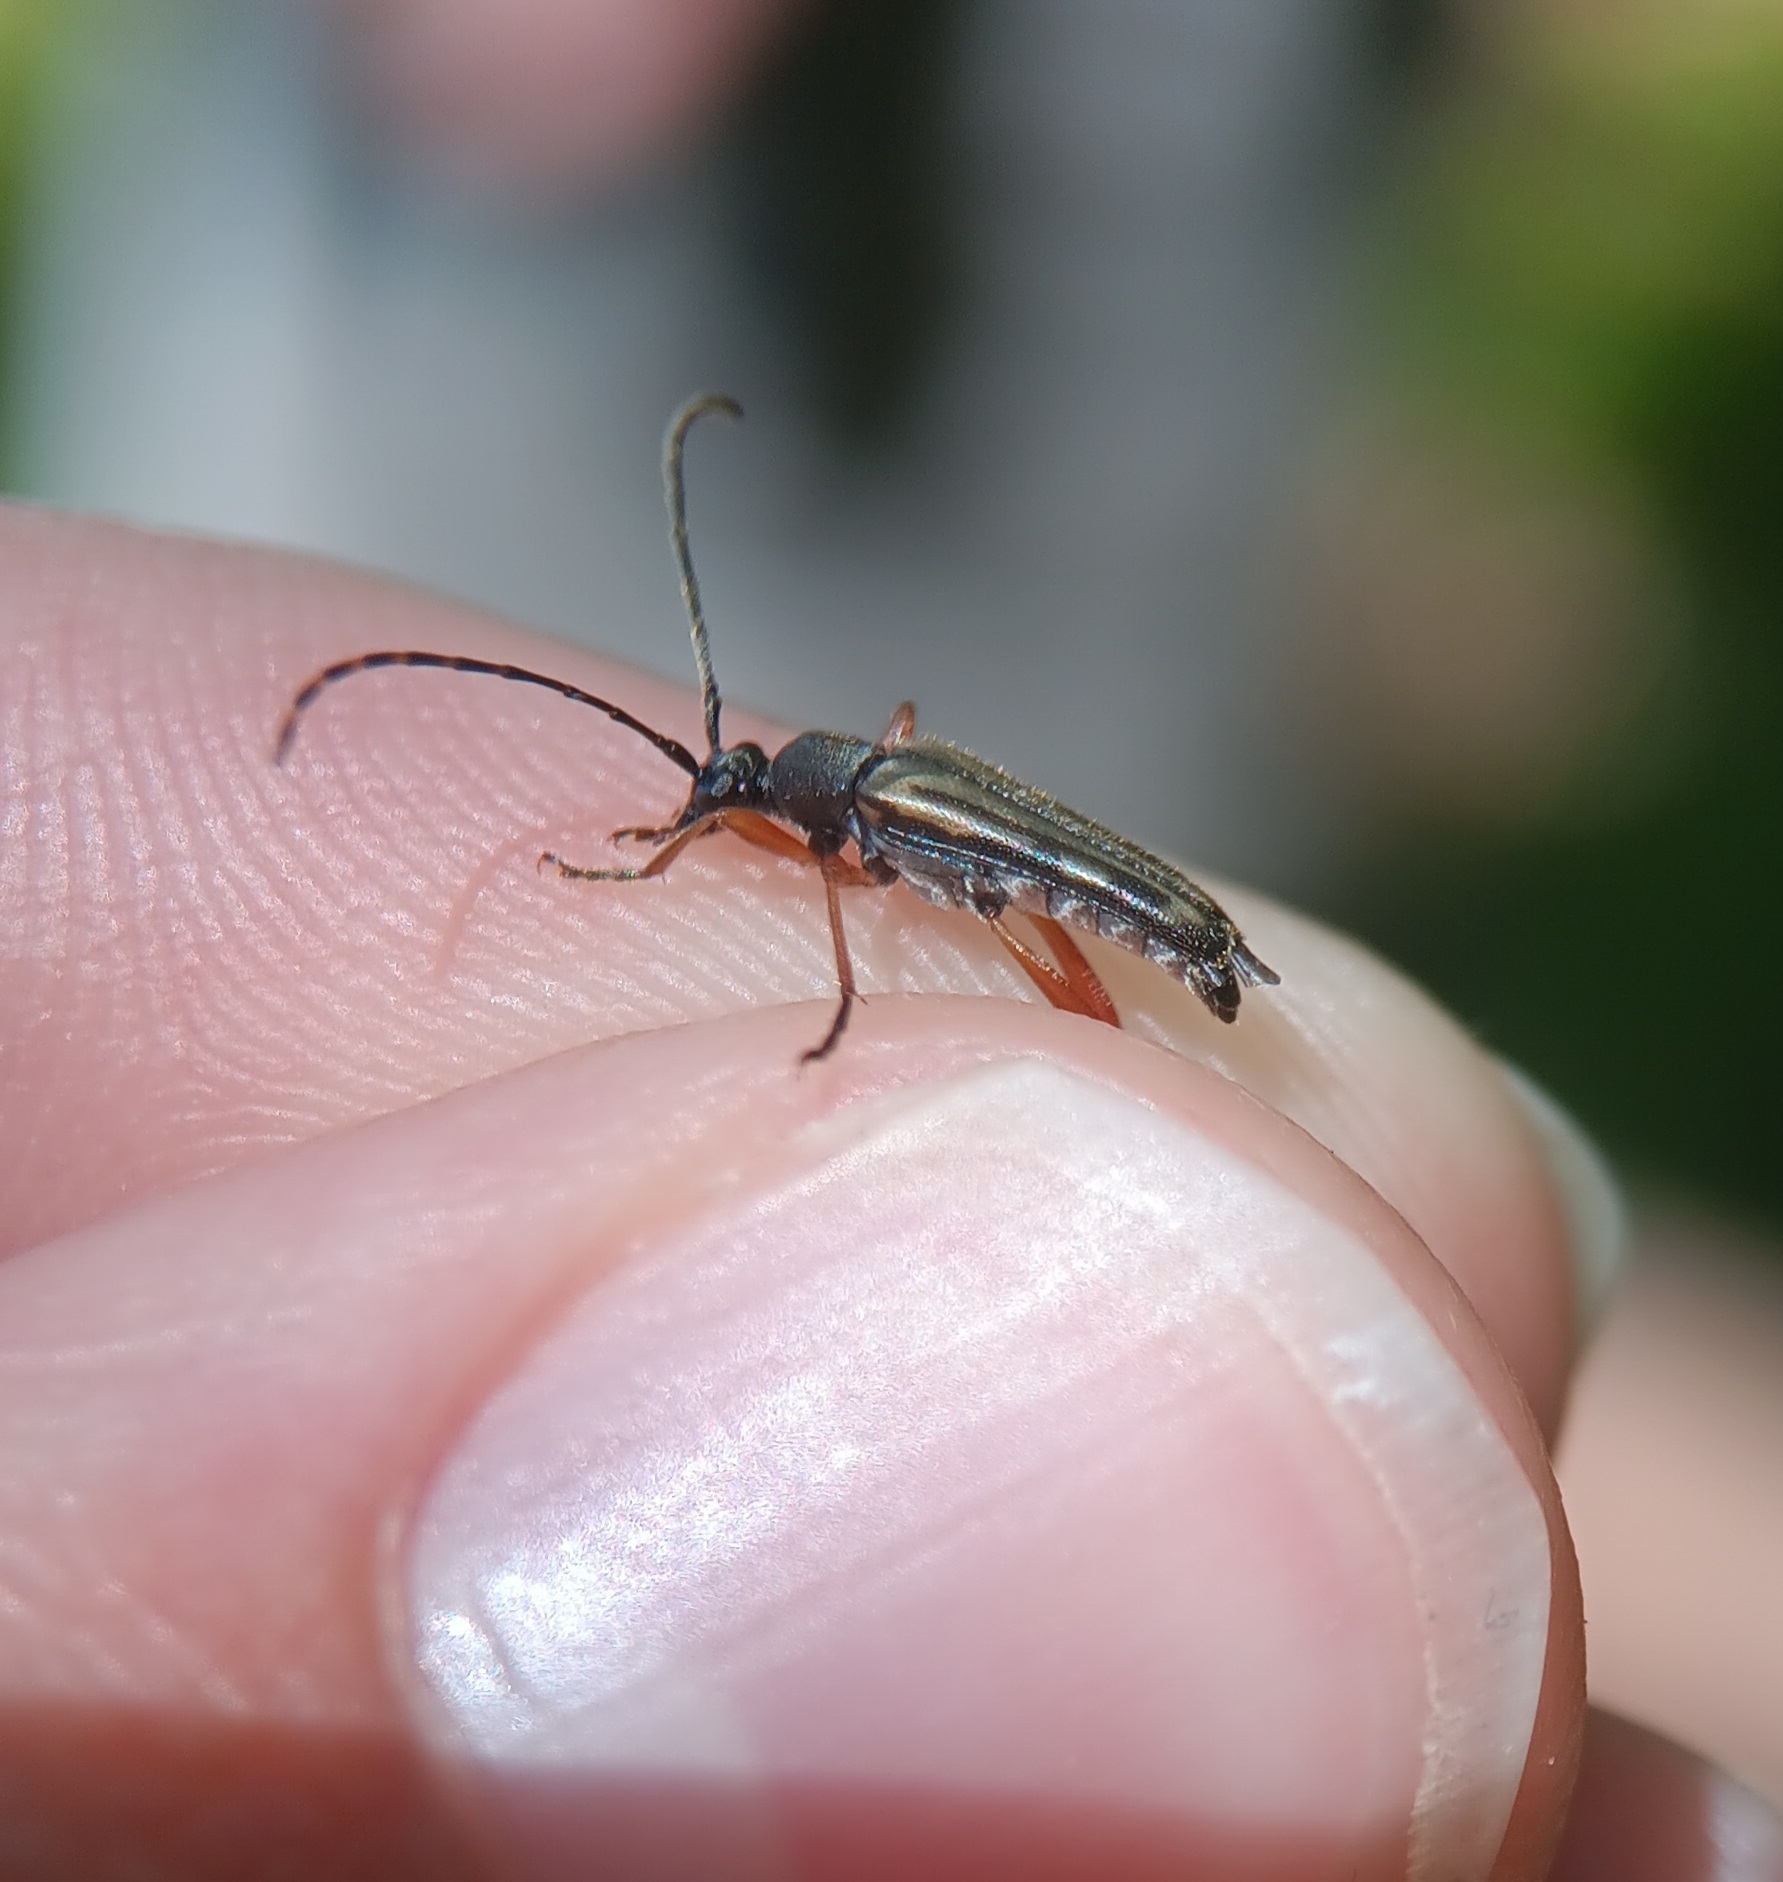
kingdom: Animalia
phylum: Arthropoda
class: Insecta
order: Coleoptera
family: Cerambycidae
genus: Analeptura
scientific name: Analeptura lineola
